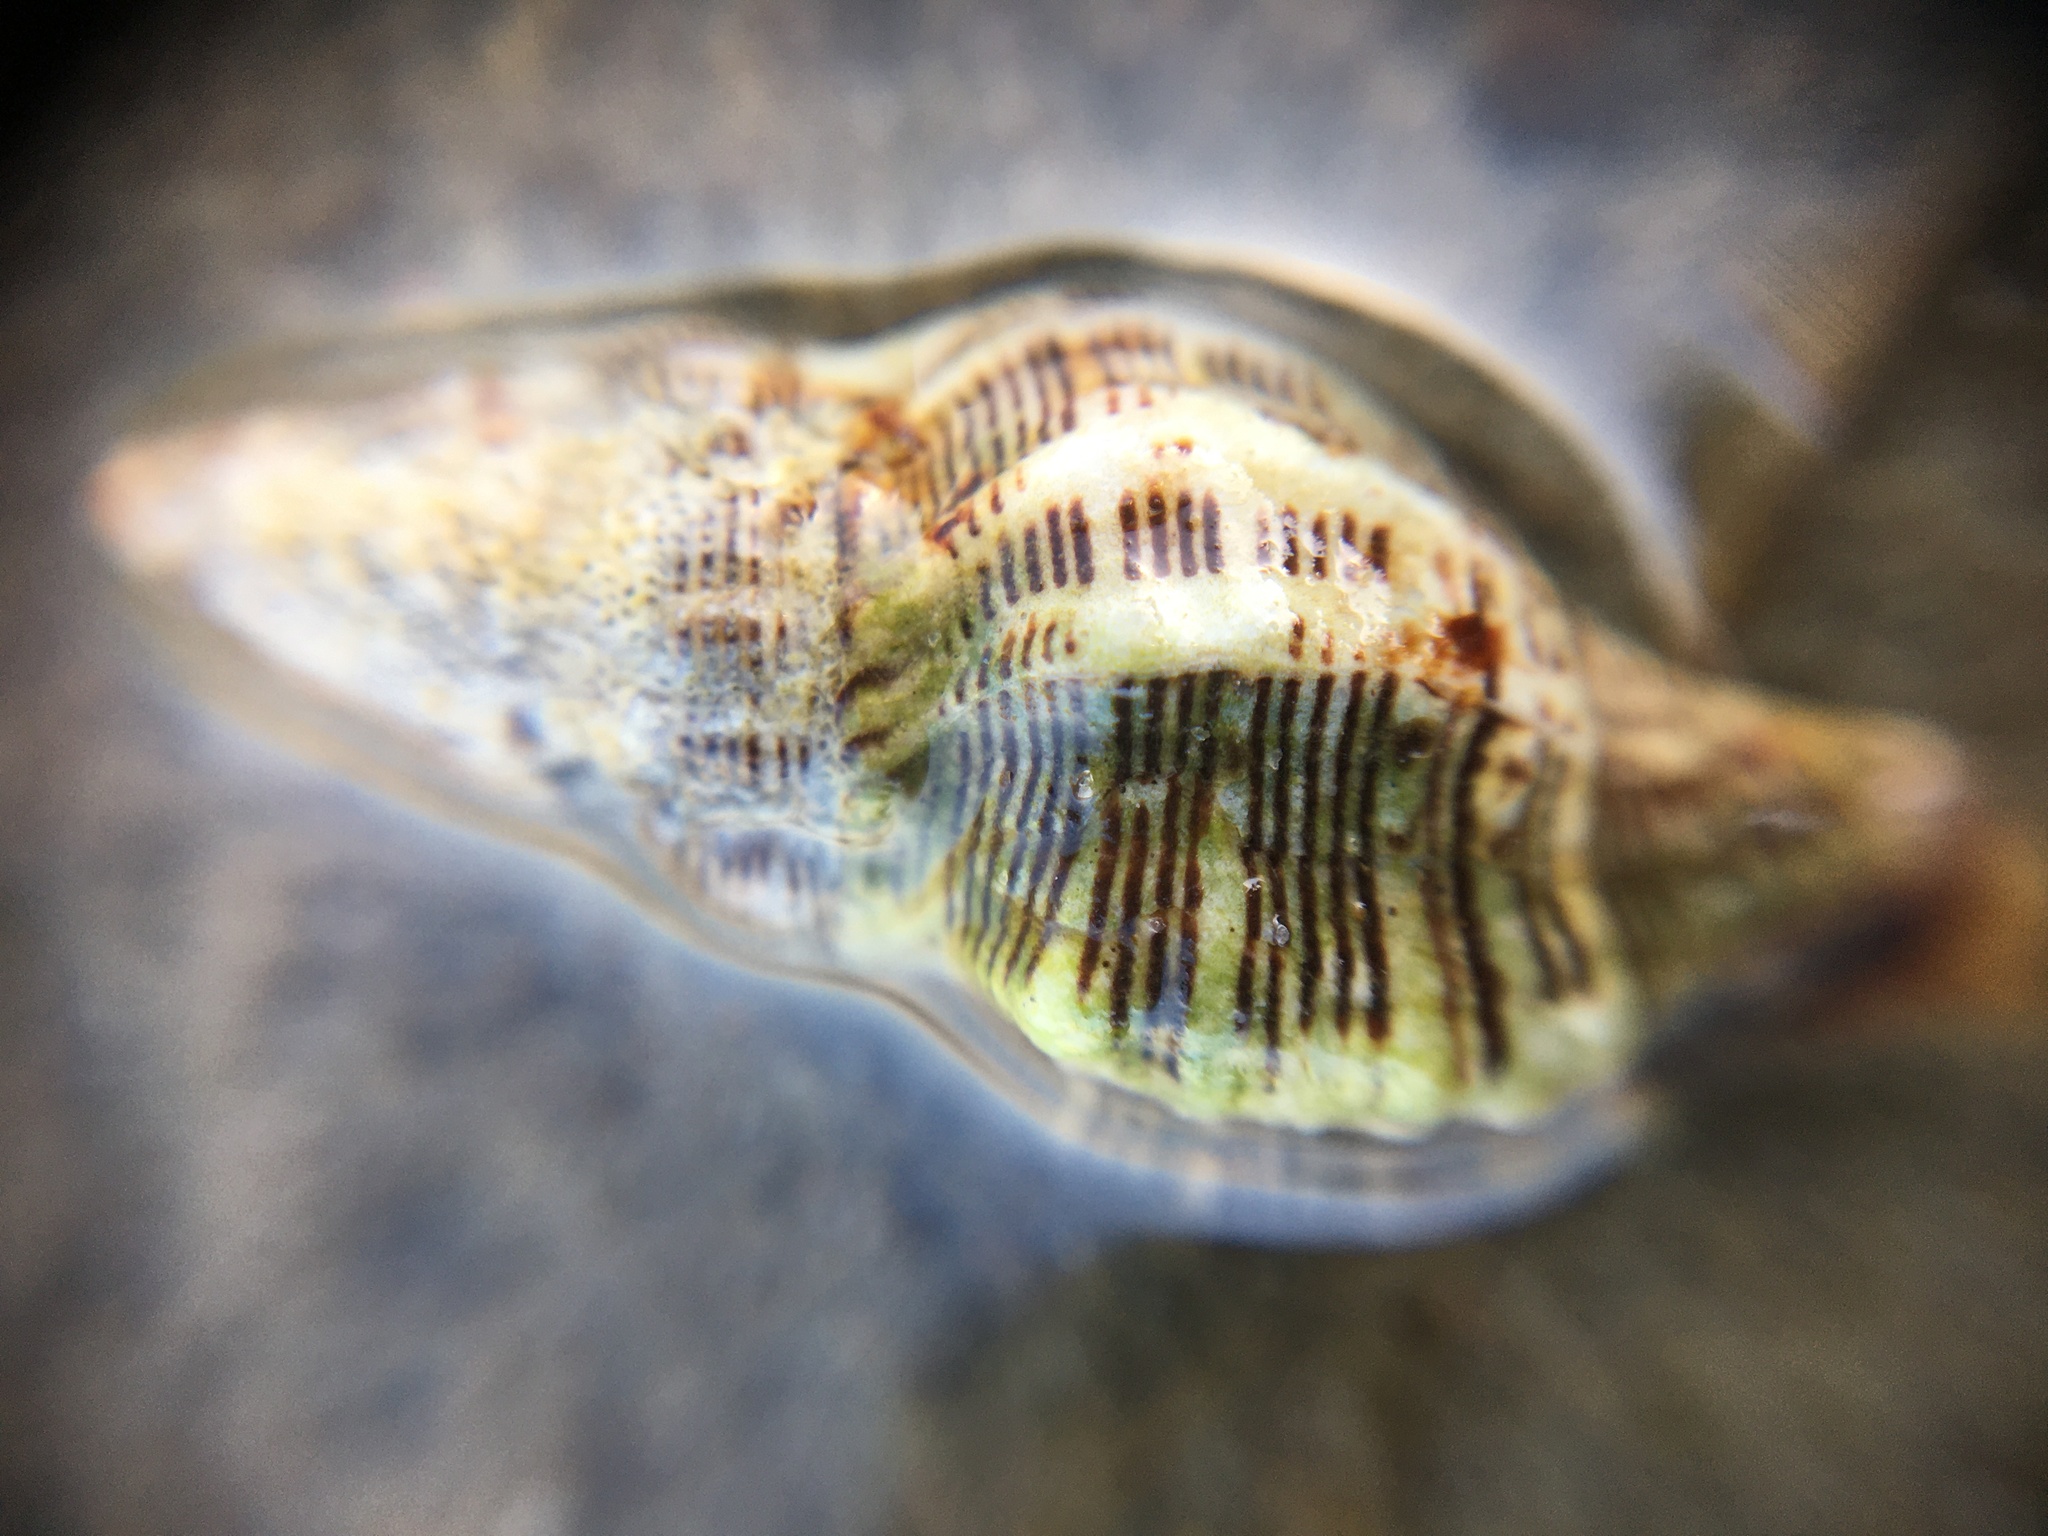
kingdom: Animalia
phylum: Mollusca
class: Gastropoda
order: Neogastropoda
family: Muricidae
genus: Roperia
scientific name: Roperia poulsoni
